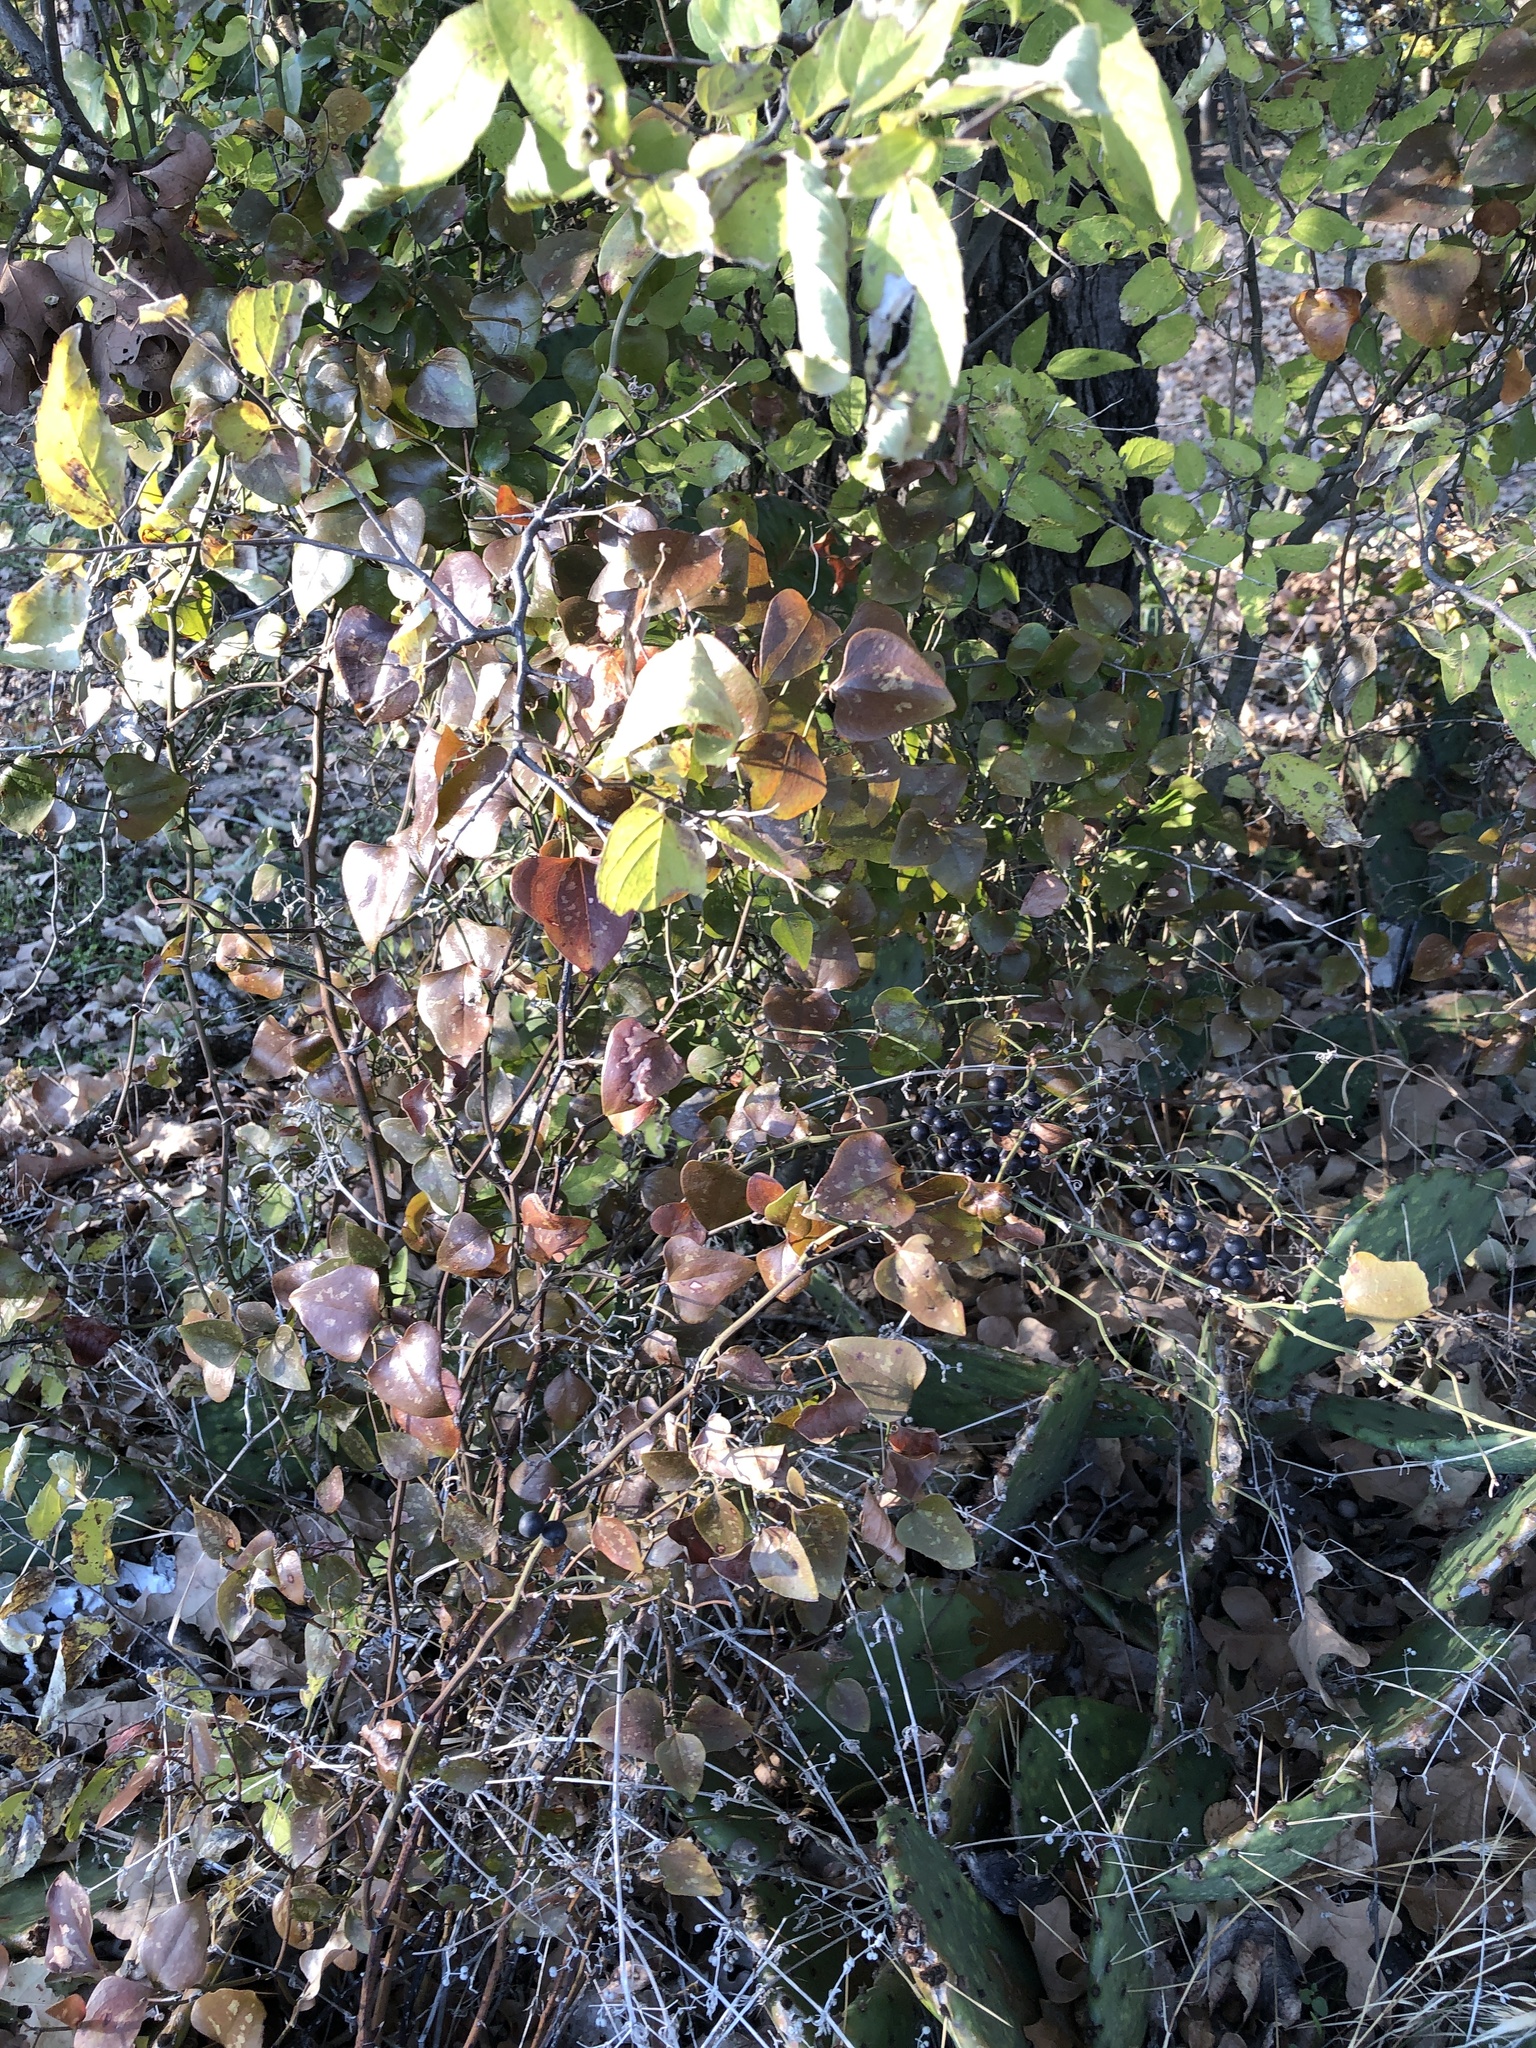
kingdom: Plantae
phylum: Tracheophyta
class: Liliopsida
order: Liliales
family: Smilacaceae
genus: Smilax
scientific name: Smilax bona-nox
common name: Catbrier
